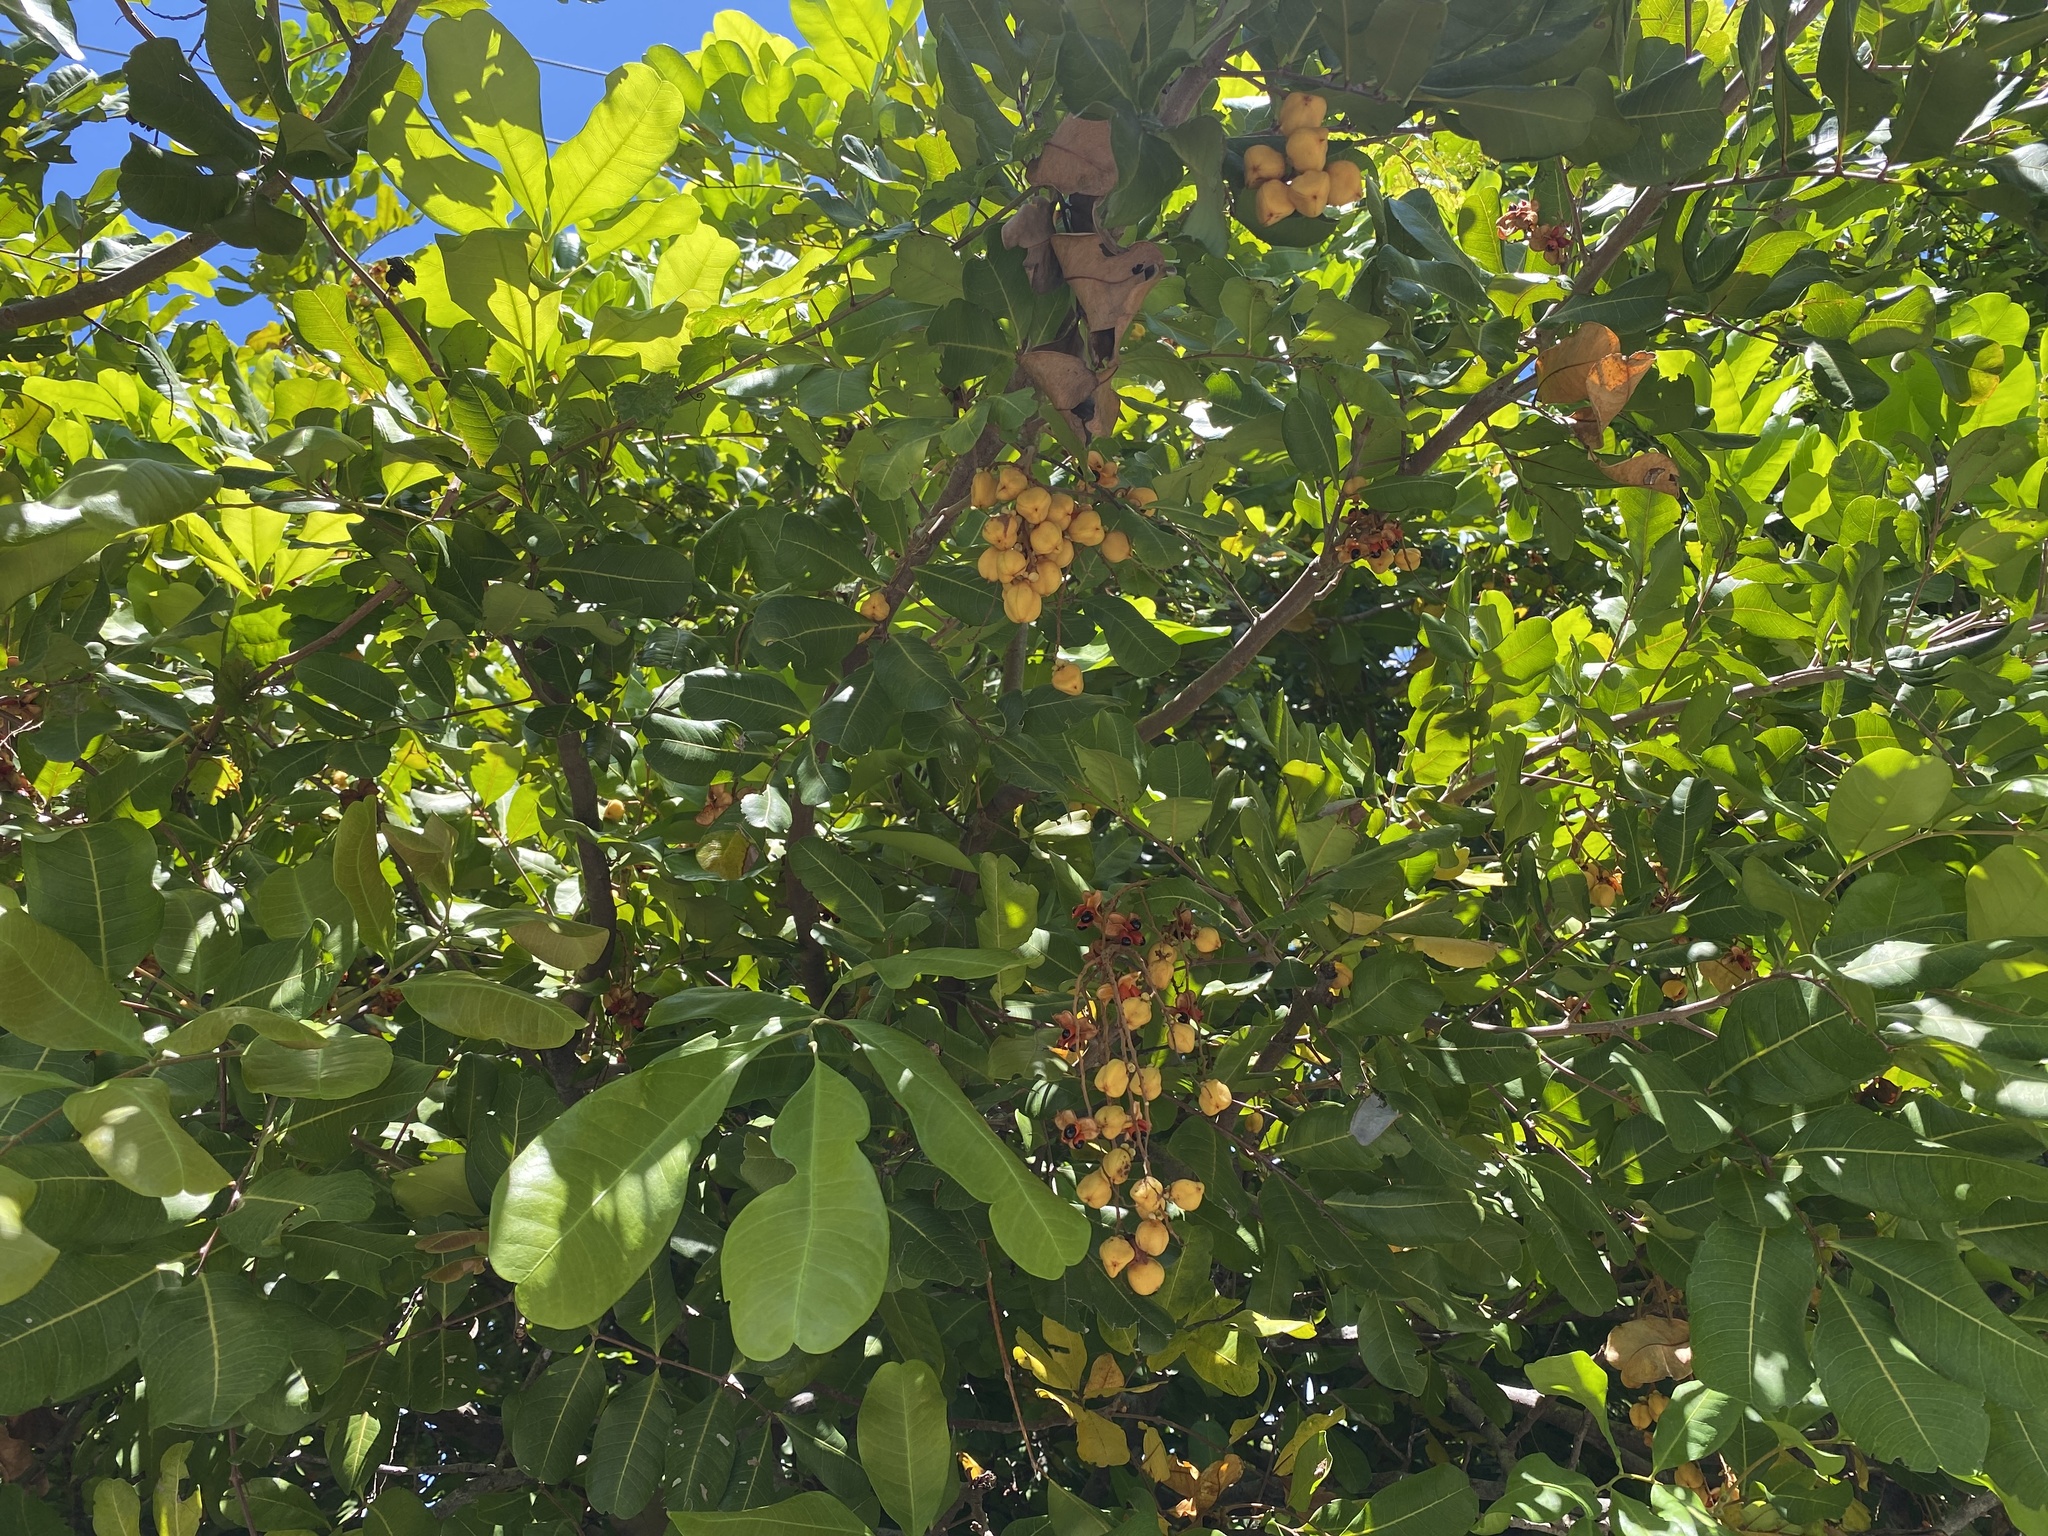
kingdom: Plantae
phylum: Tracheophyta
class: Magnoliopsida
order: Sapindales
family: Sapindaceae
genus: Cupaniopsis
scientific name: Cupaniopsis anacardioides
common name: Carrotwood
